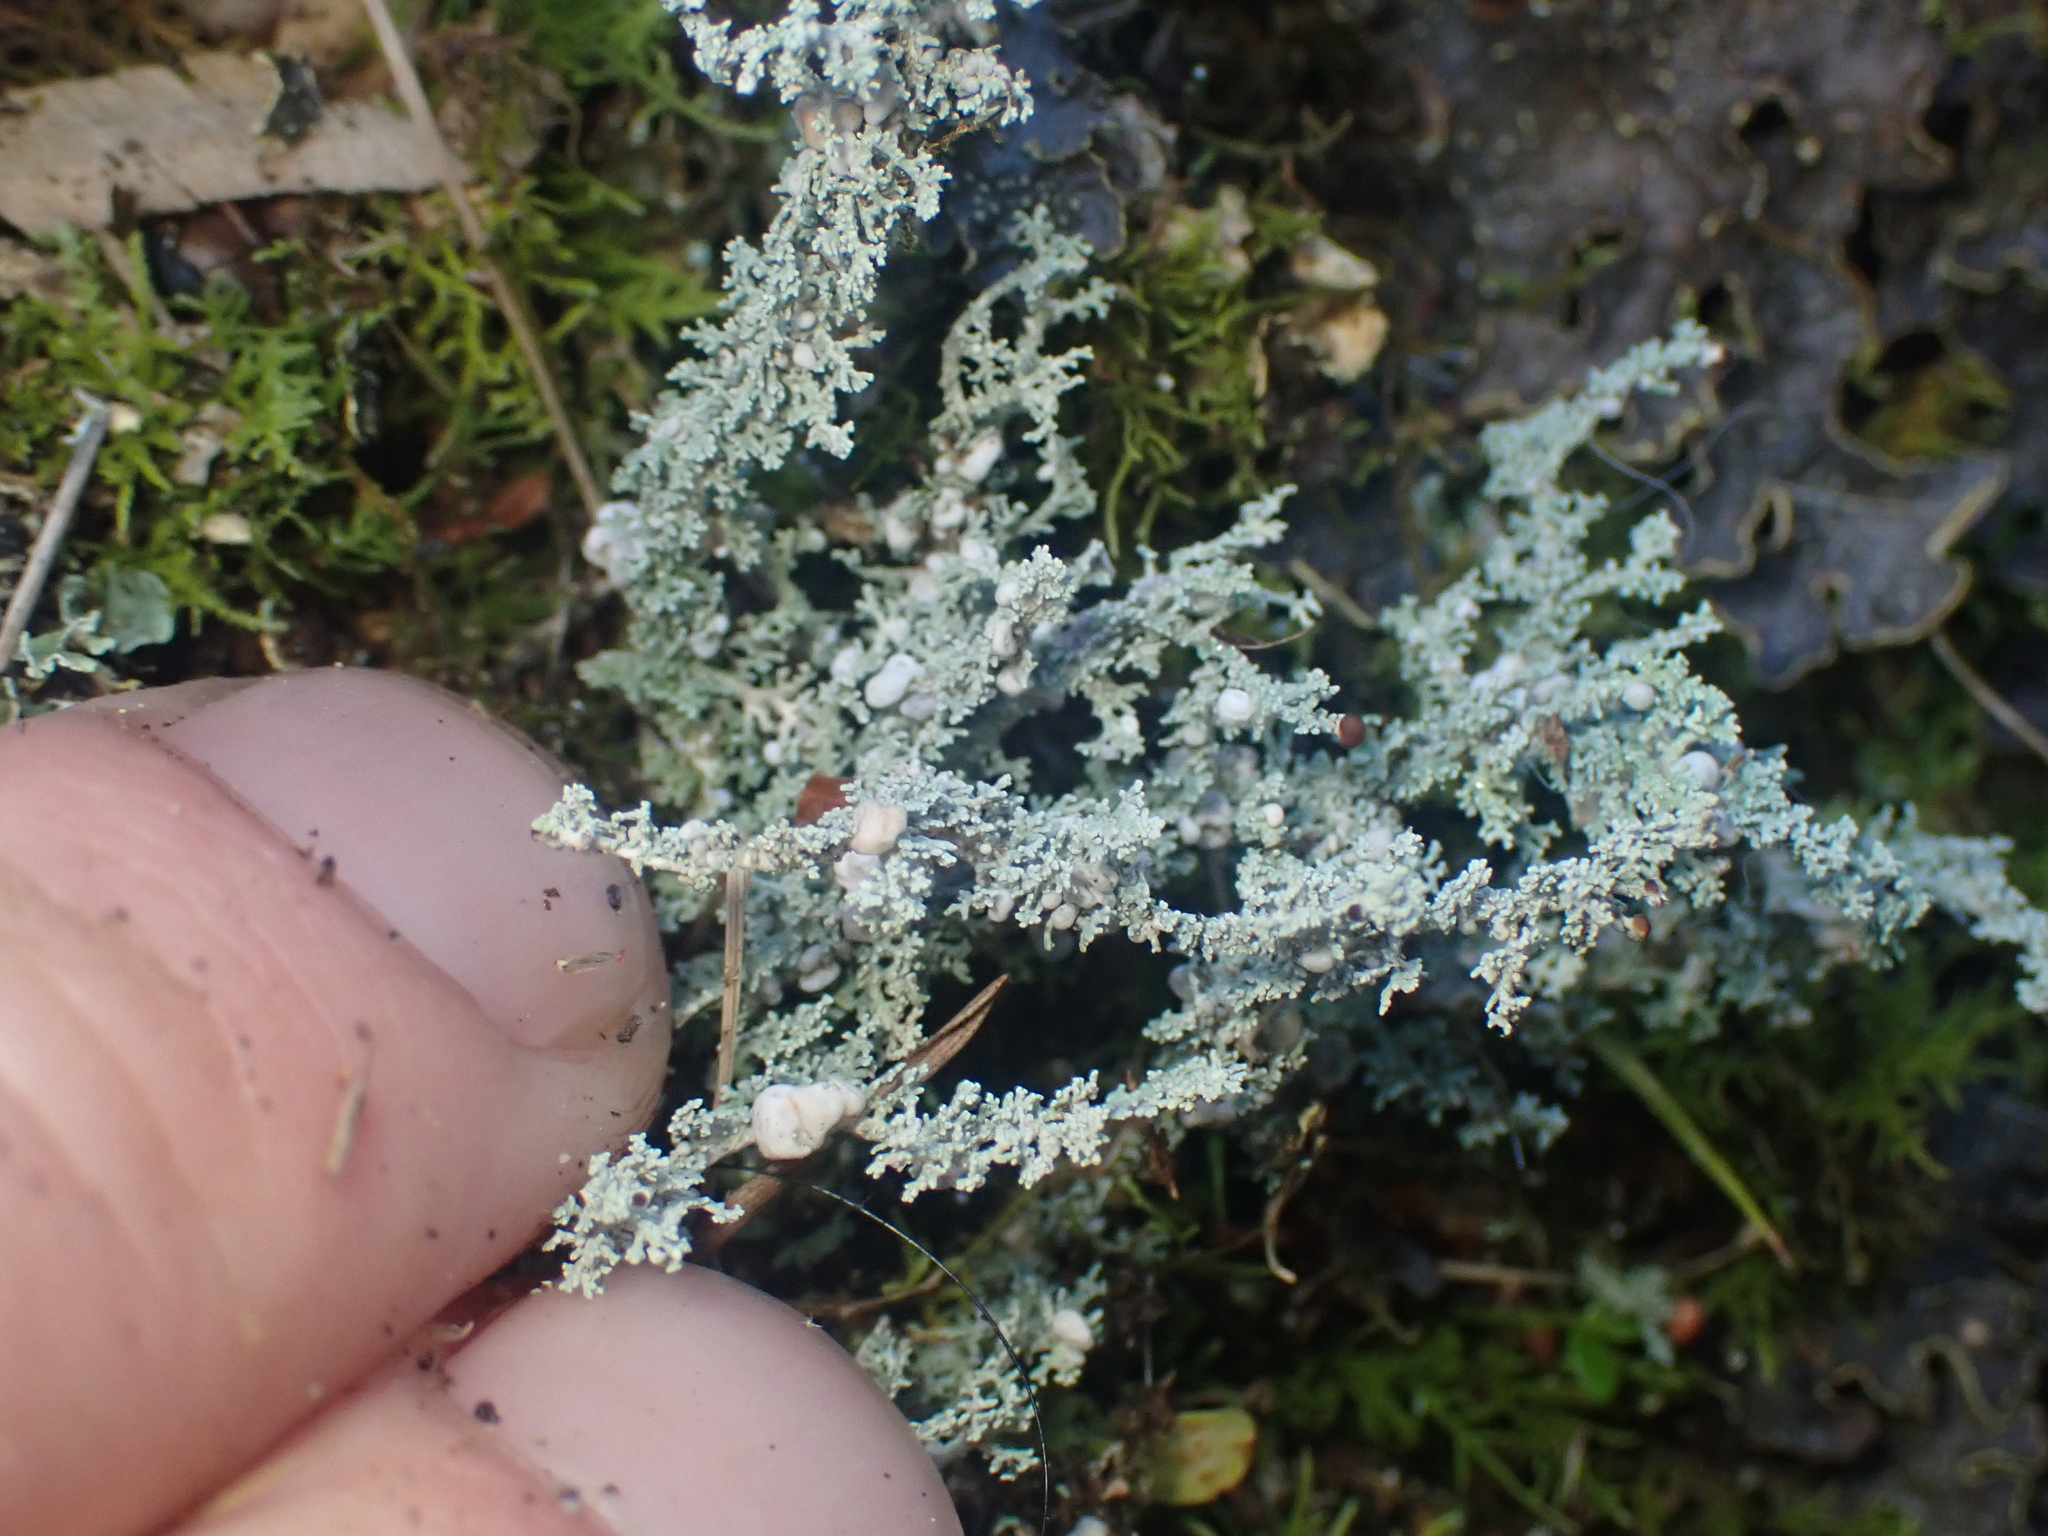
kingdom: Fungi
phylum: Ascomycota
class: Lecanoromycetes
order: Lecanorales
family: Stereocaulaceae
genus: Stereocaulon
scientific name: Stereocaulon ramulosum
